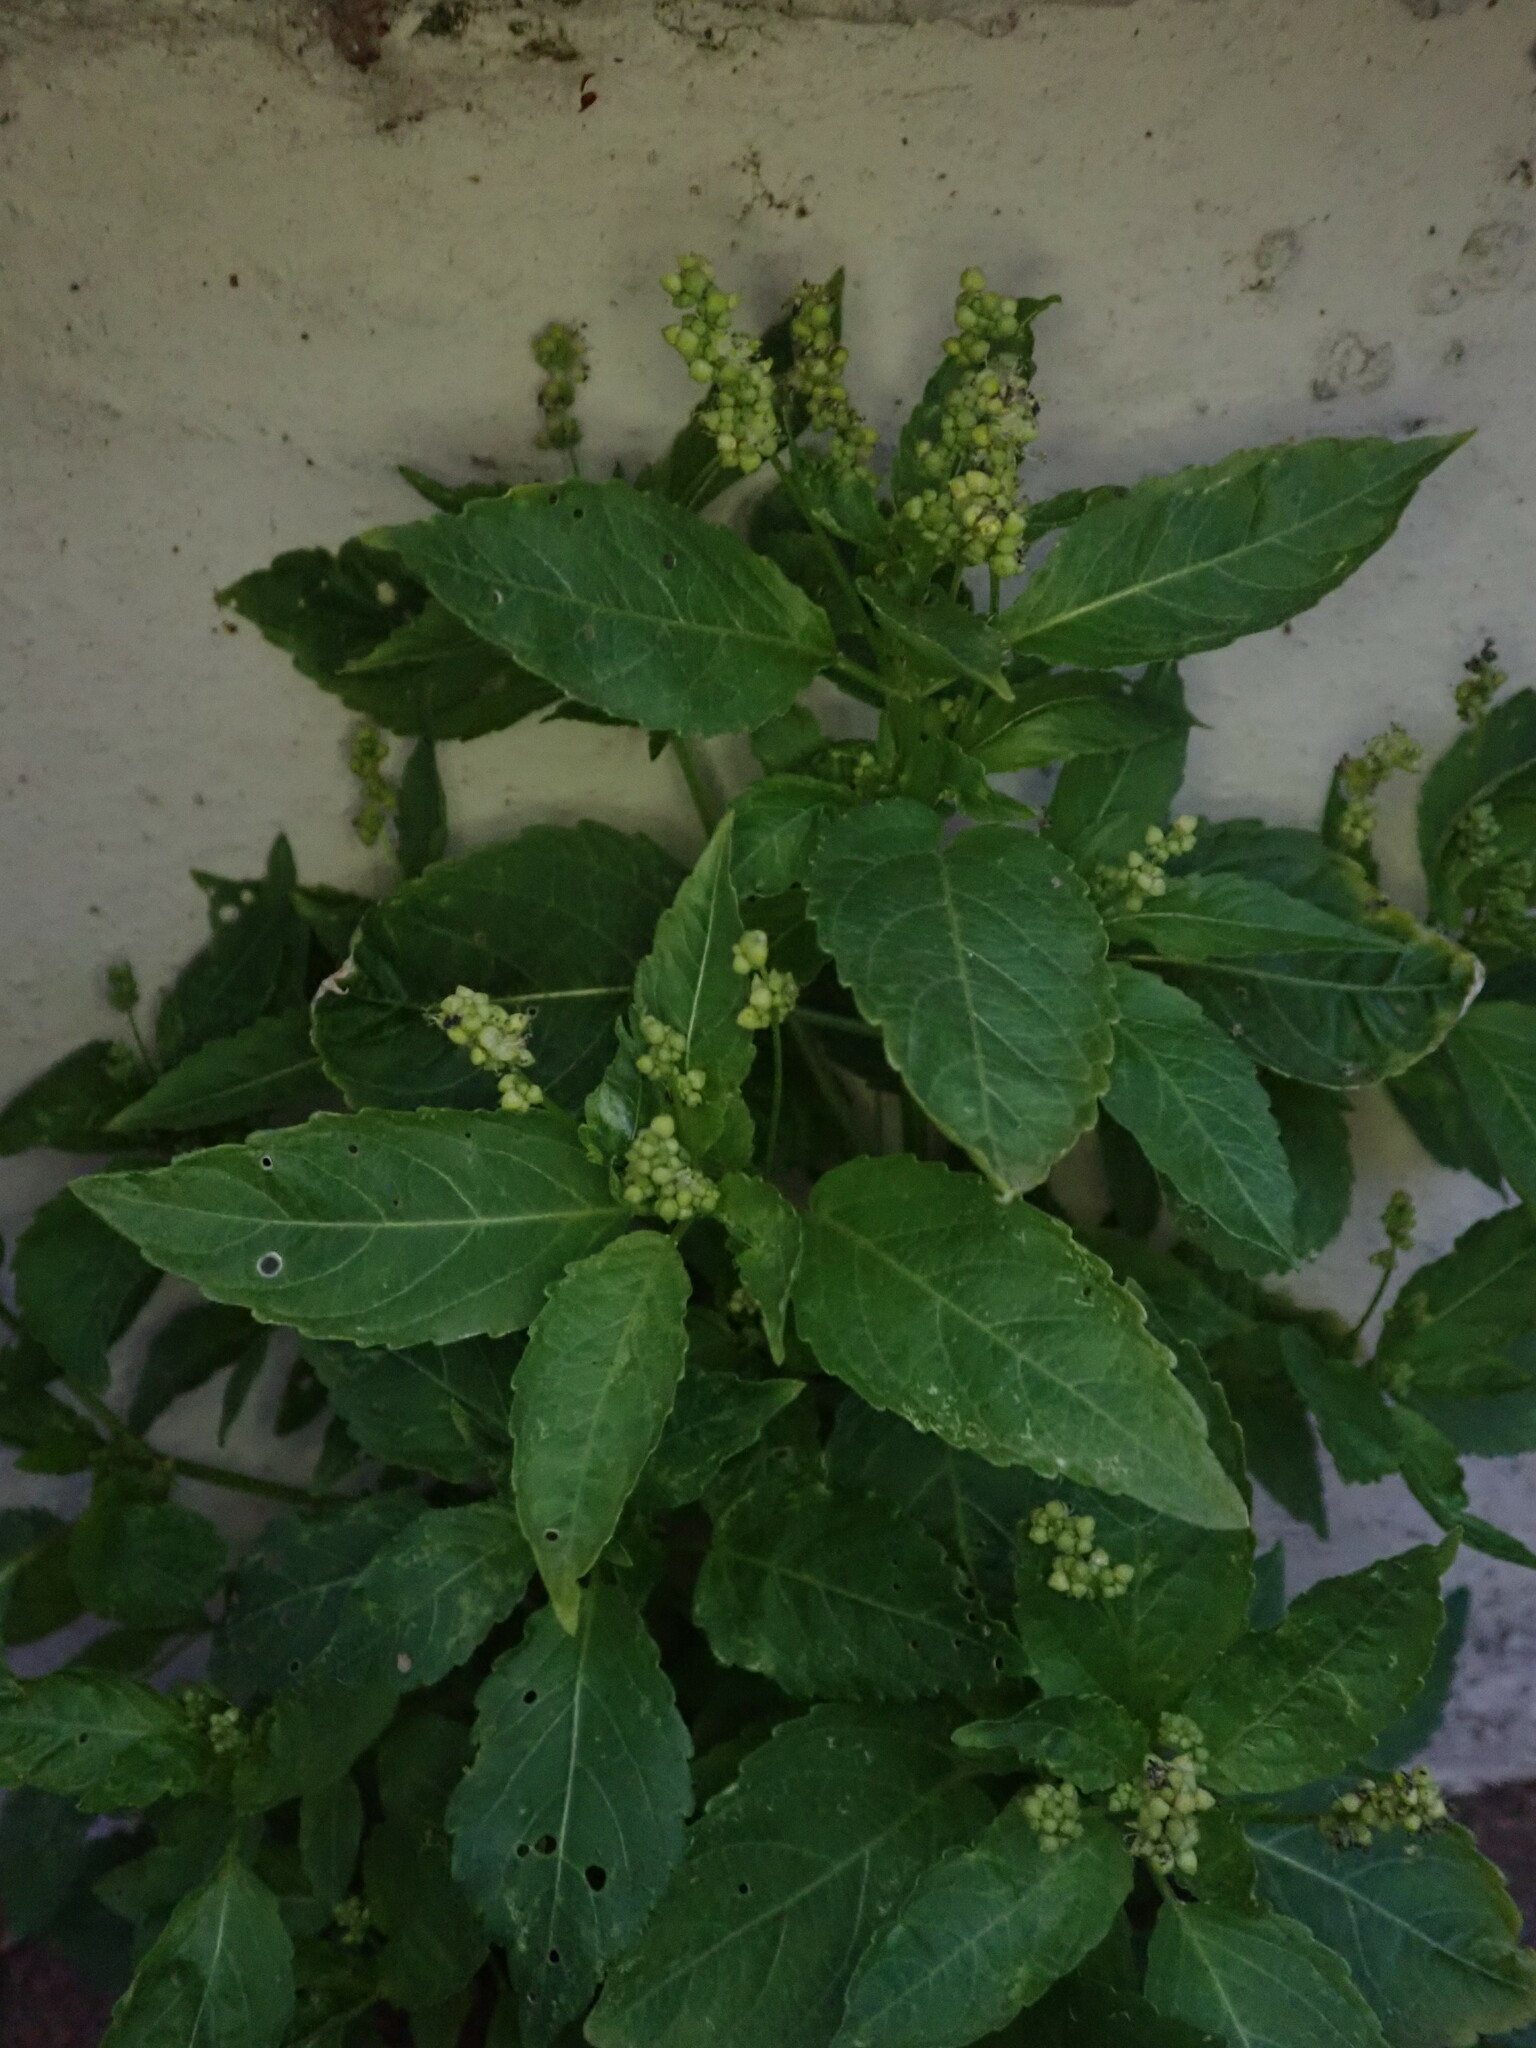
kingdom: Plantae
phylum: Tracheophyta
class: Magnoliopsida
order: Malpighiales
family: Euphorbiaceae
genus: Mercurialis
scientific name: Mercurialis annua
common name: Annual mercury
